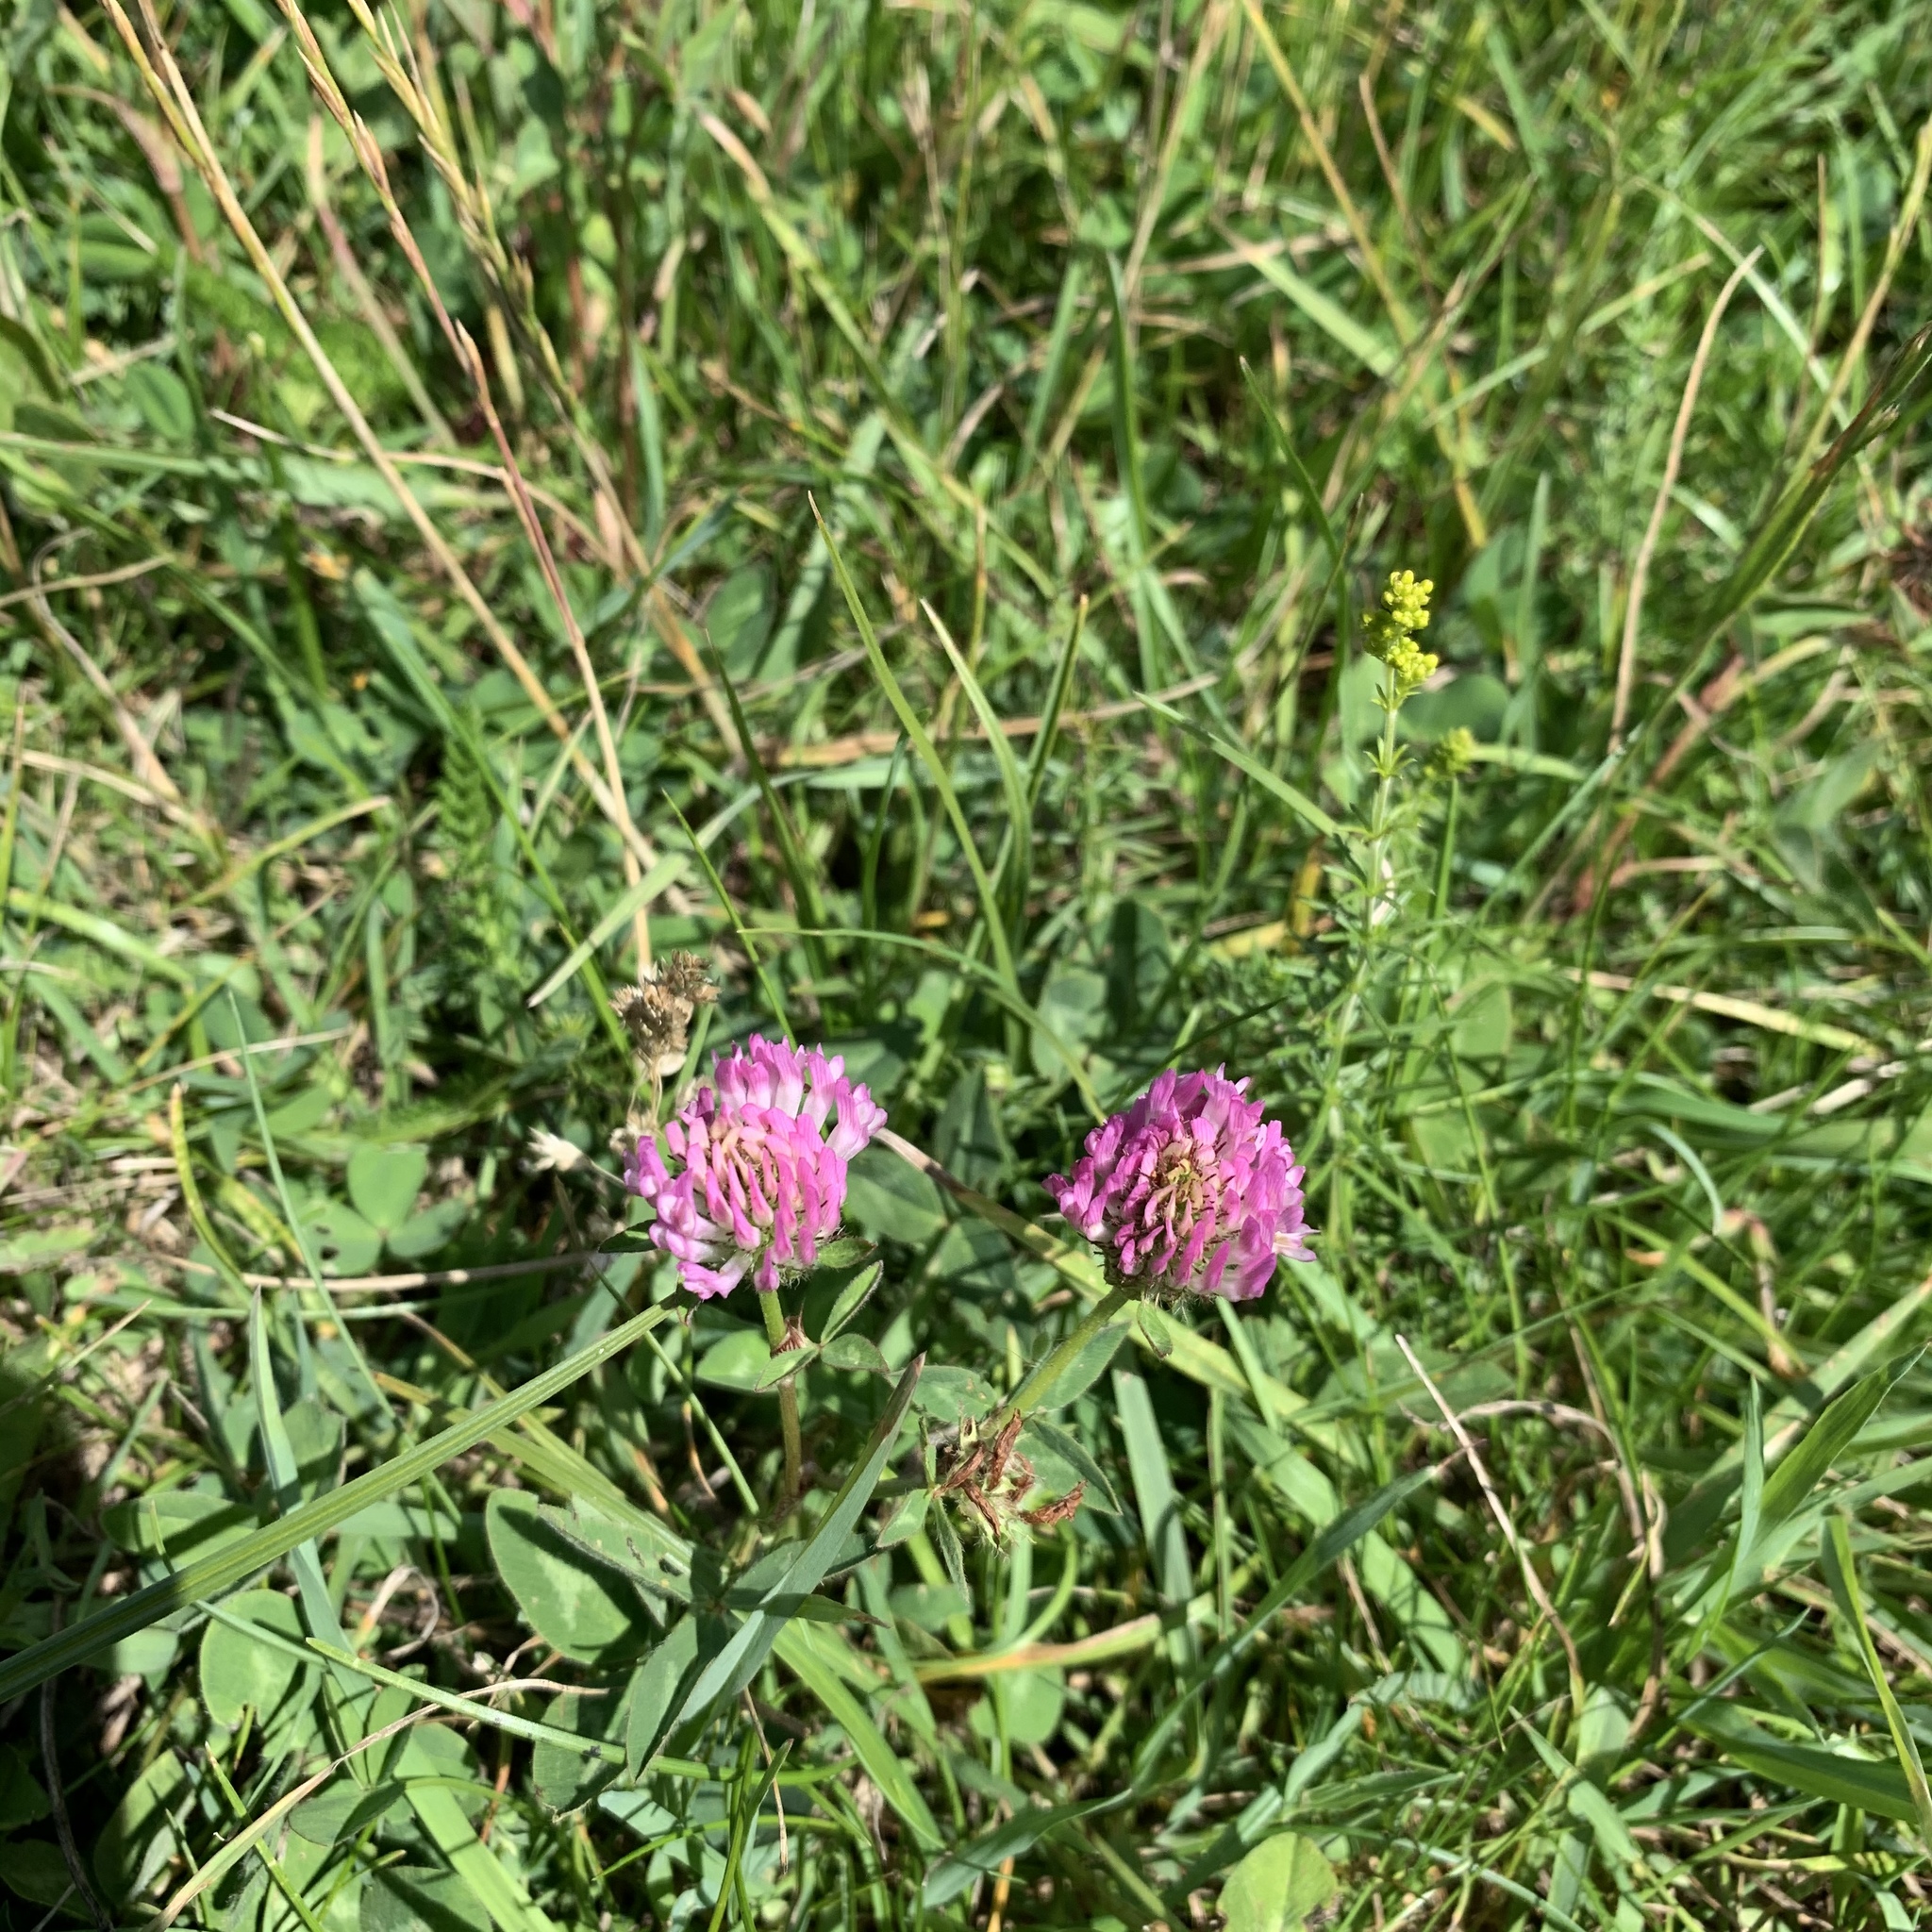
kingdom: Plantae
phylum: Tracheophyta
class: Magnoliopsida
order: Fabales
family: Fabaceae
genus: Trifolium
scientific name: Trifolium pratense
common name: Red clover
